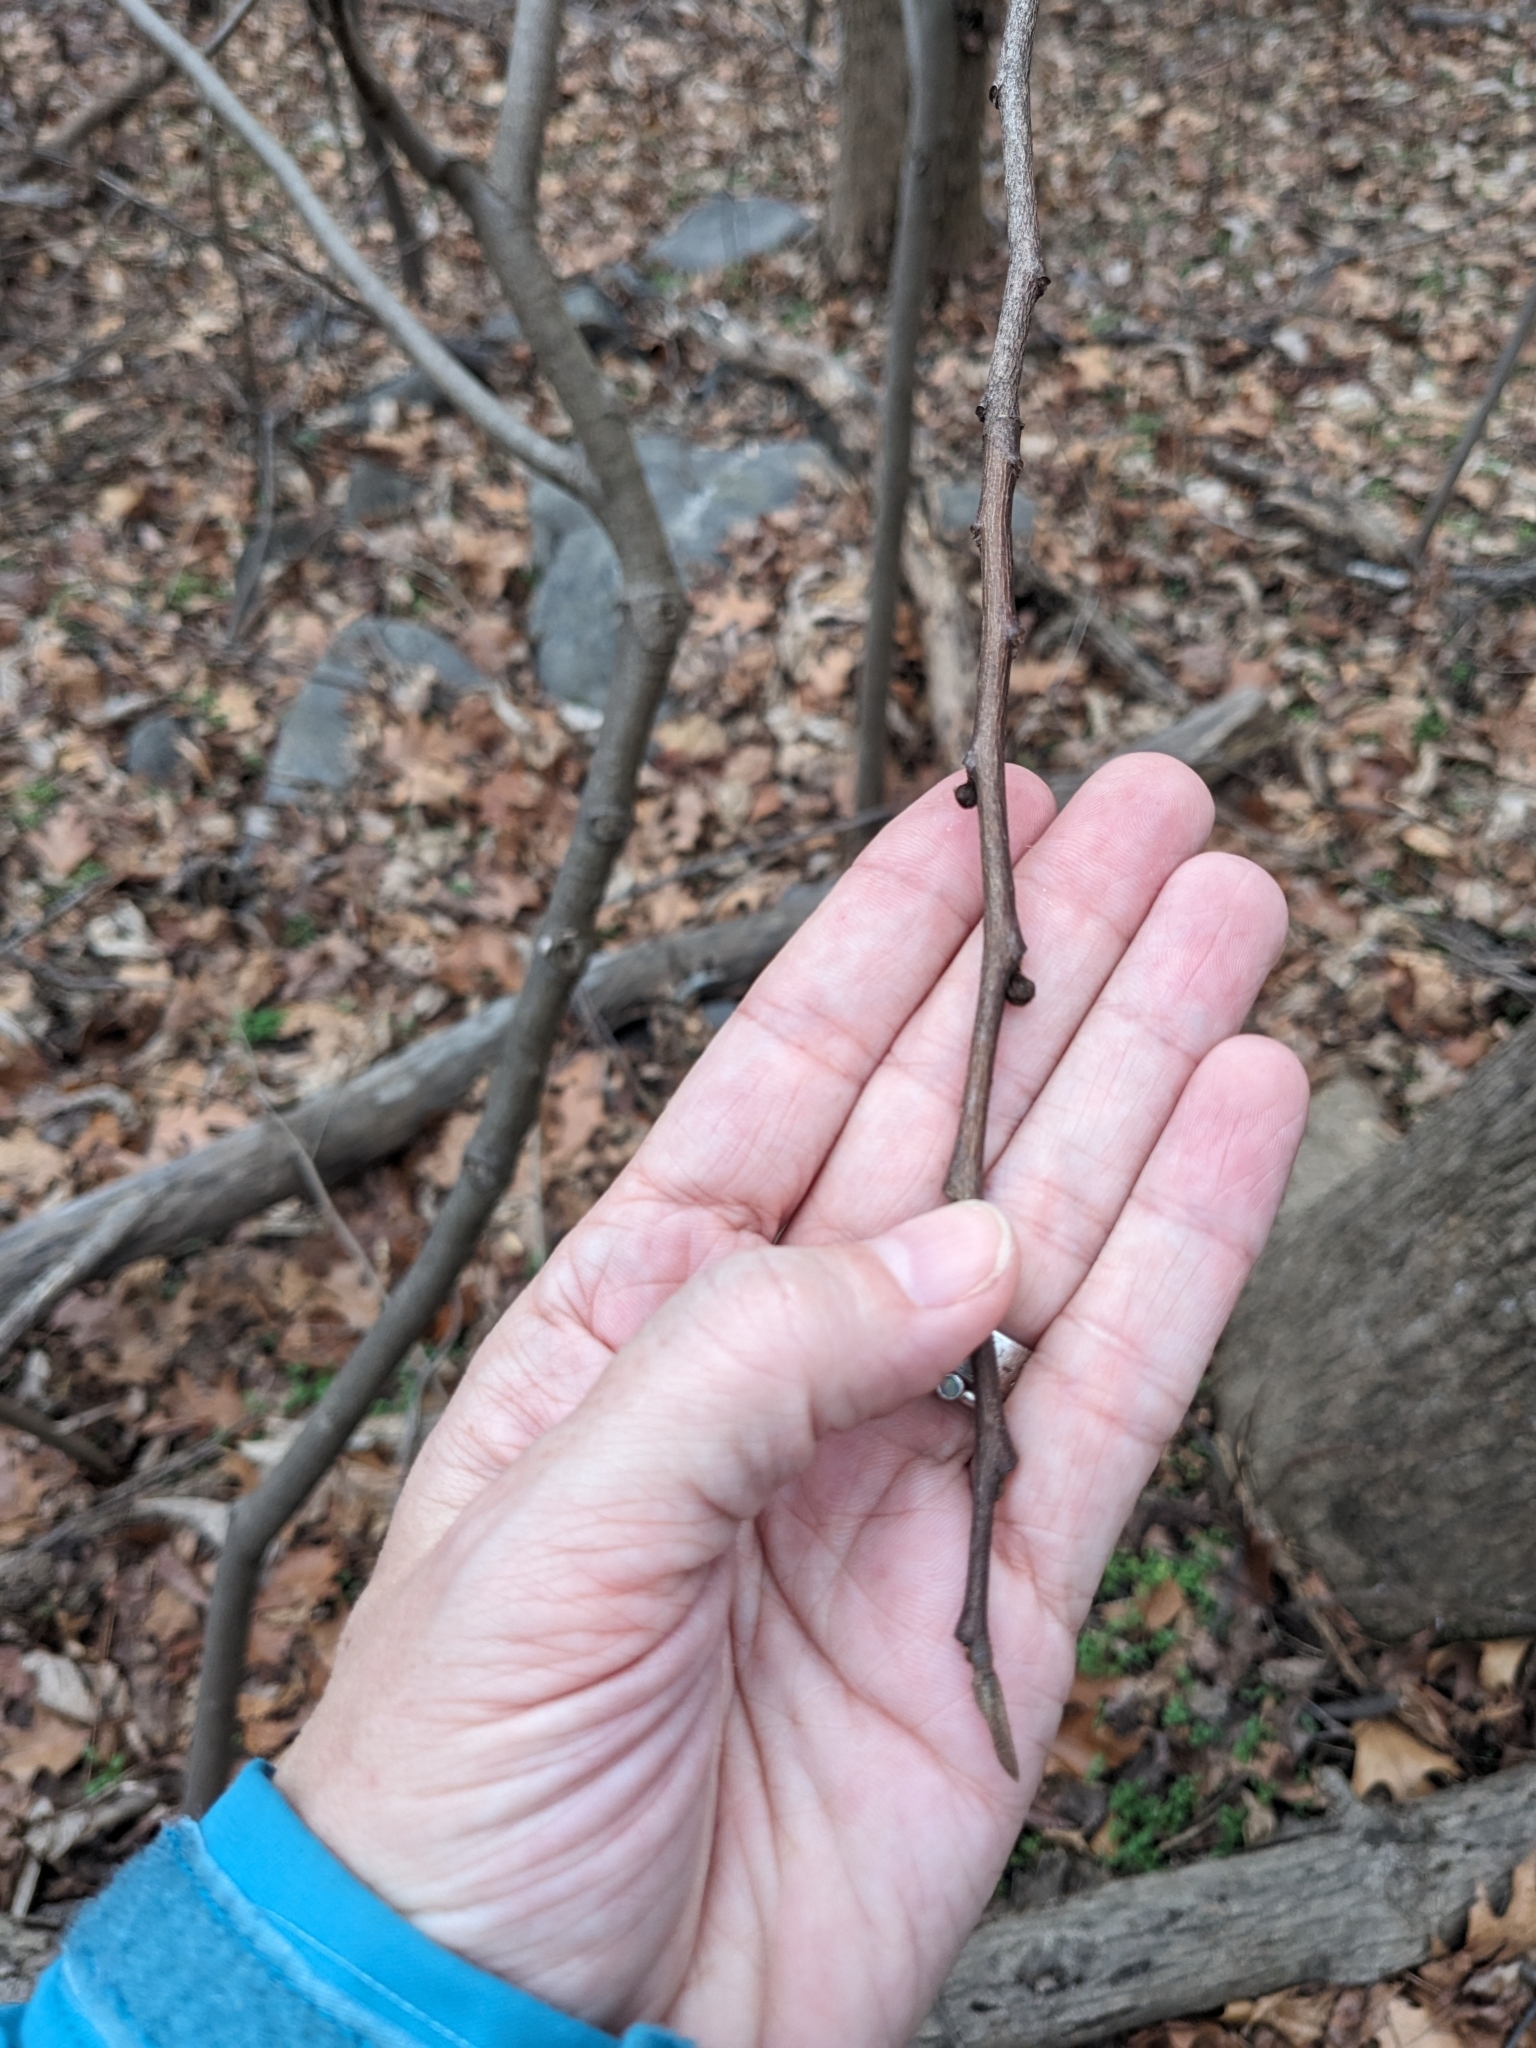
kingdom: Plantae
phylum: Tracheophyta
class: Magnoliopsida
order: Magnoliales
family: Annonaceae
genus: Asimina
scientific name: Asimina triloba
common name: Dog-banana
